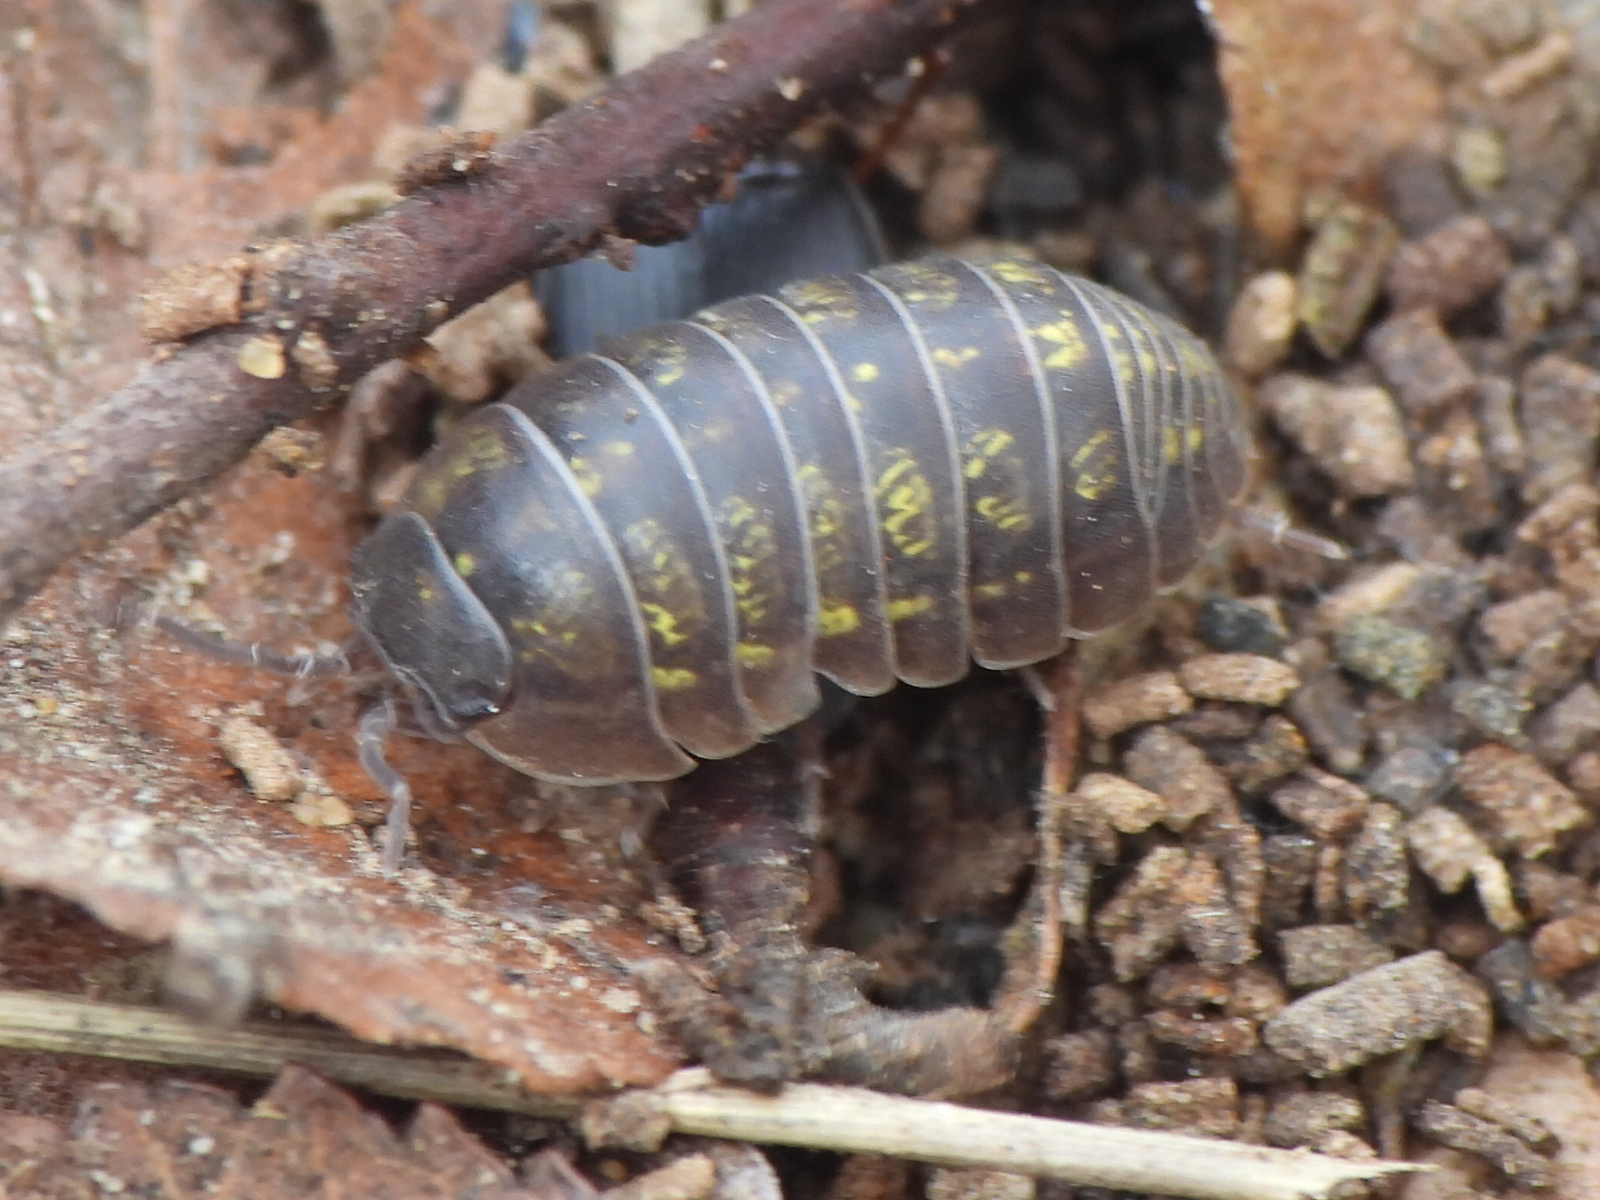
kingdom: Animalia
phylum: Arthropoda
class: Malacostraca
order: Isopoda
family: Armadillidiidae
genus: Armadillidium
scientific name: Armadillidium vulgare
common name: Common pill woodlouse
